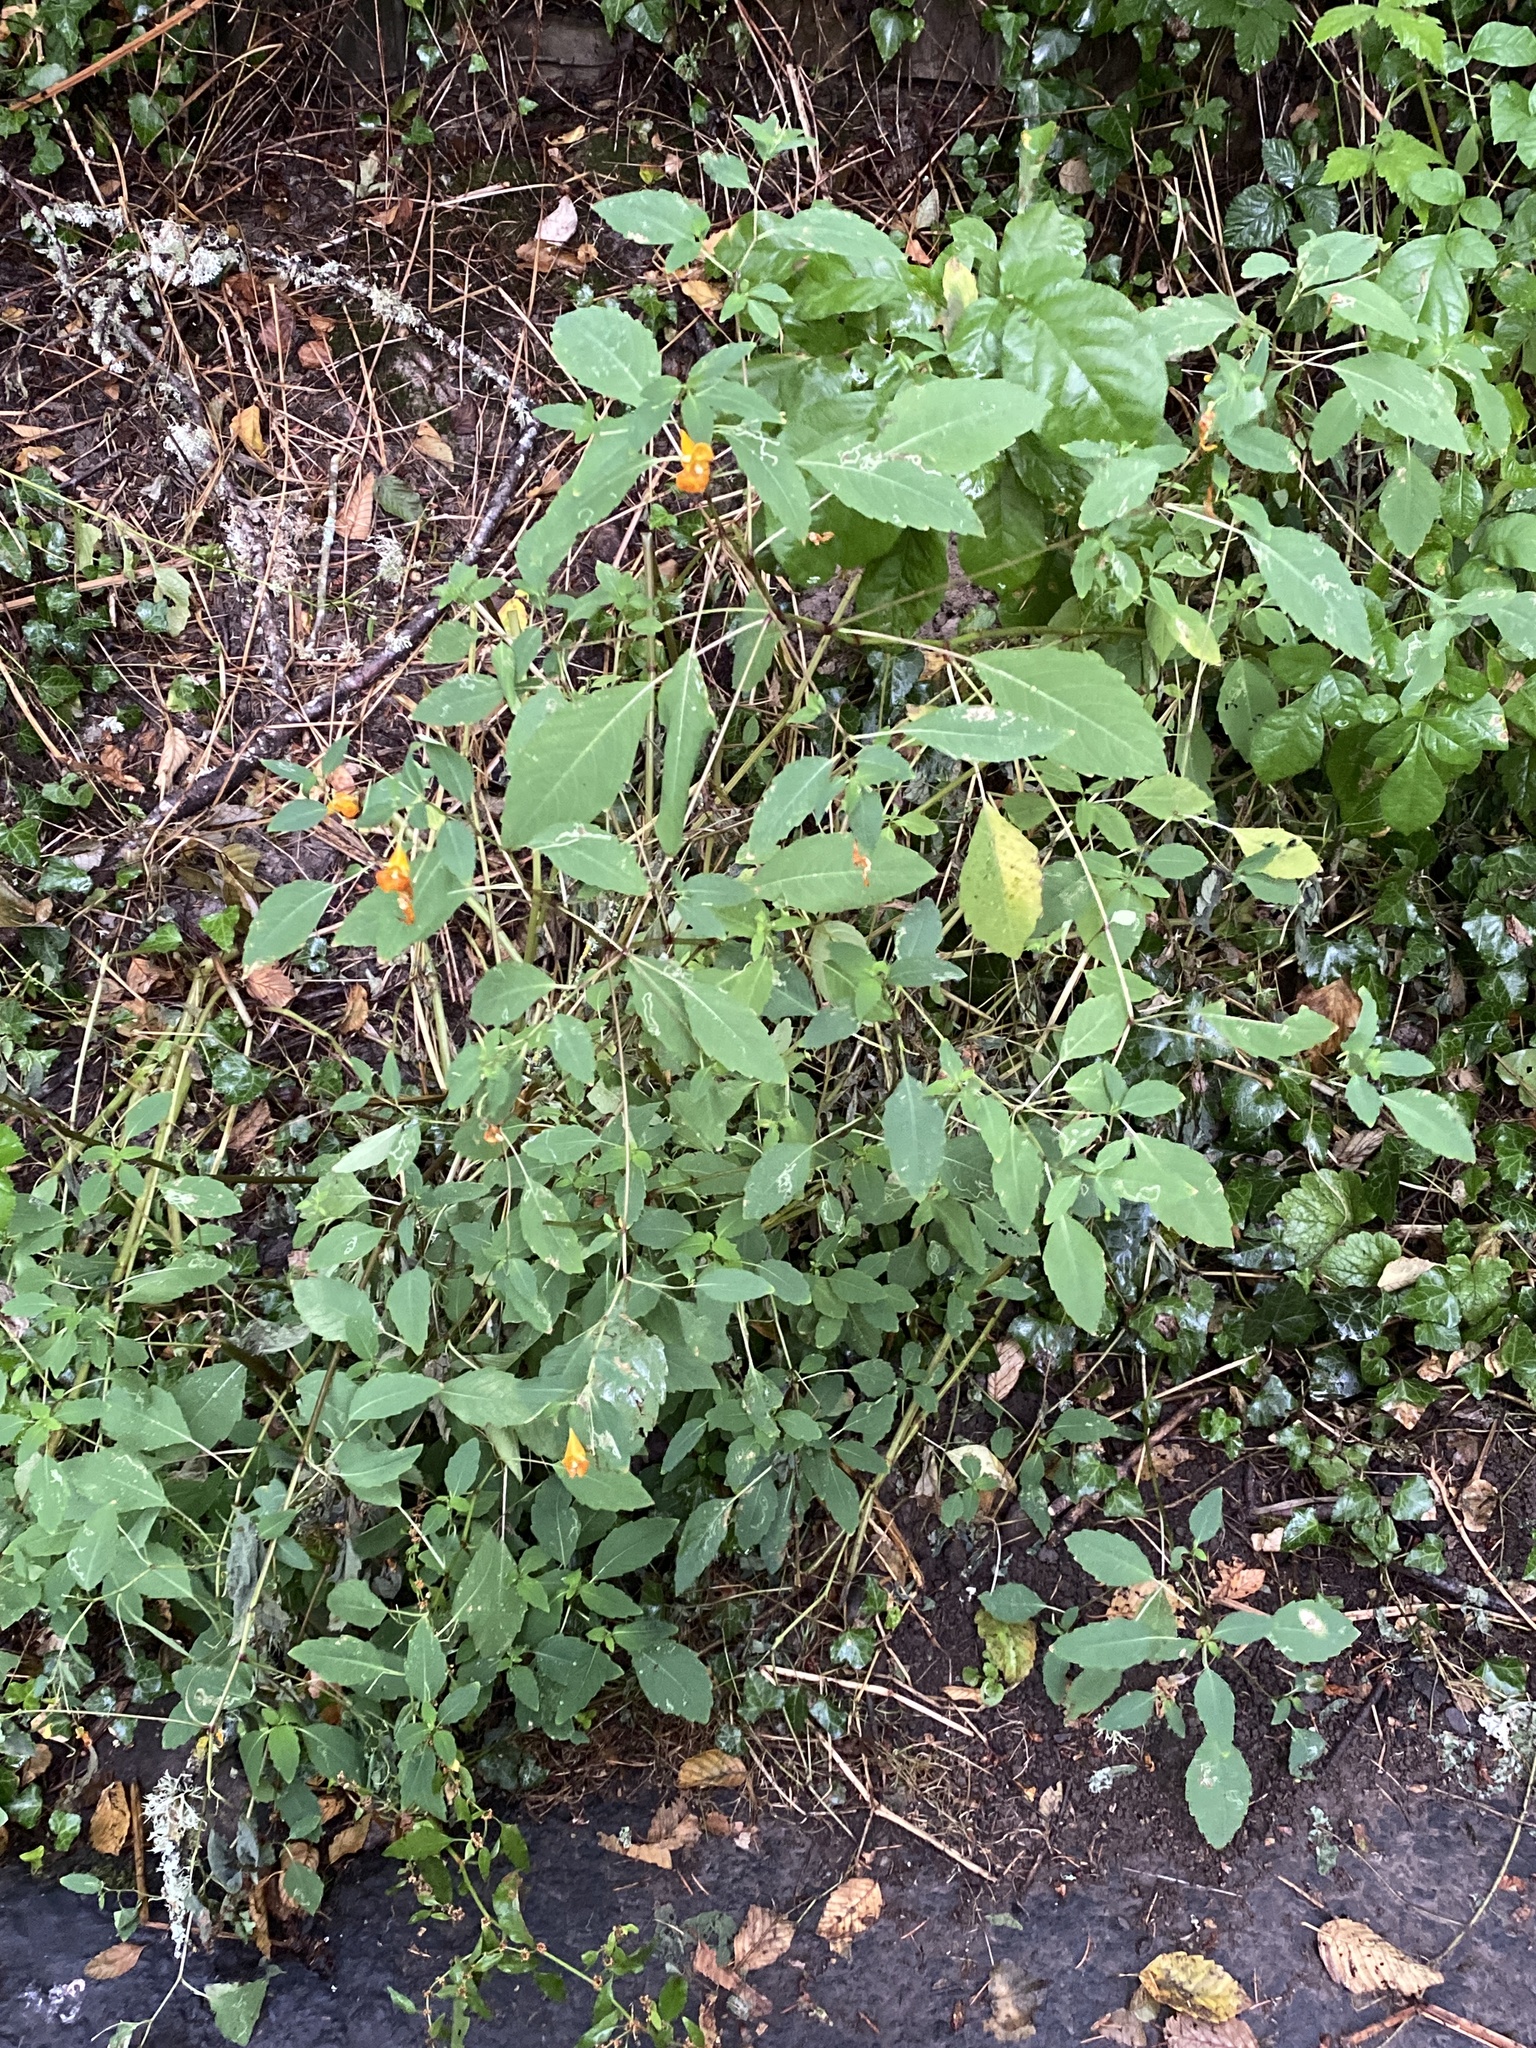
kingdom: Plantae
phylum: Tracheophyta
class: Magnoliopsida
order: Ericales
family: Balsaminaceae
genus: Impatiens
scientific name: Impatiens capensis
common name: Orange balsam
